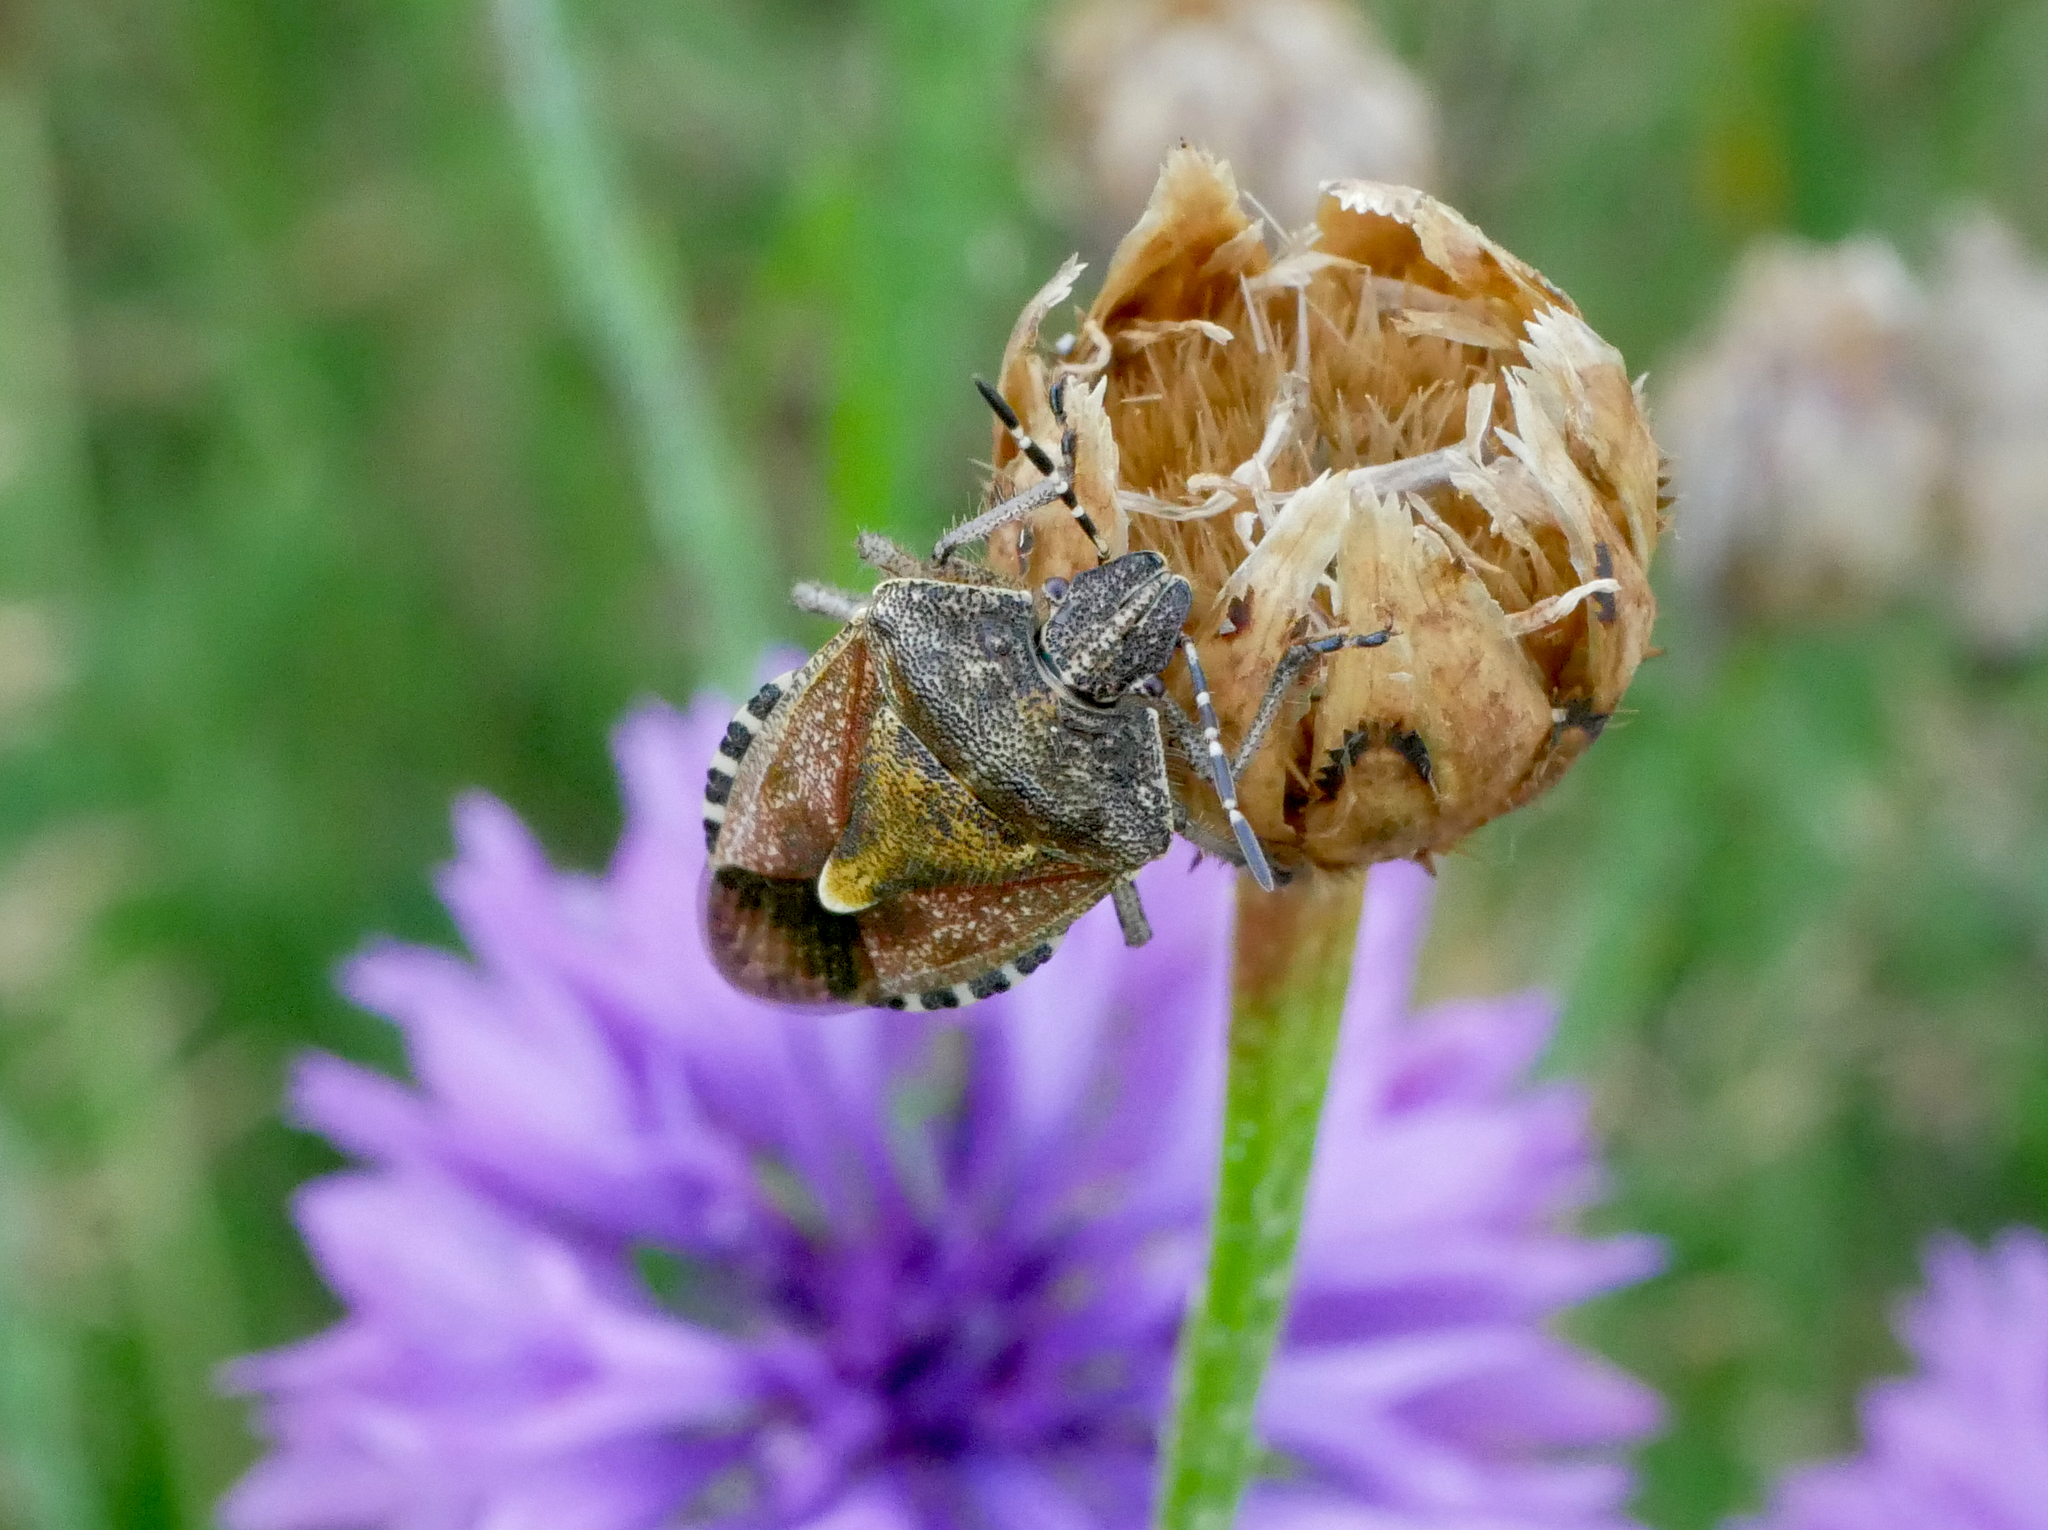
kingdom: Animalia
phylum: Arthropoda
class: Insecta
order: Hemiptera
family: Pentatomidae
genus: Dolycoris
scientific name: Dolycoris baccarum
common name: Sloe bug
